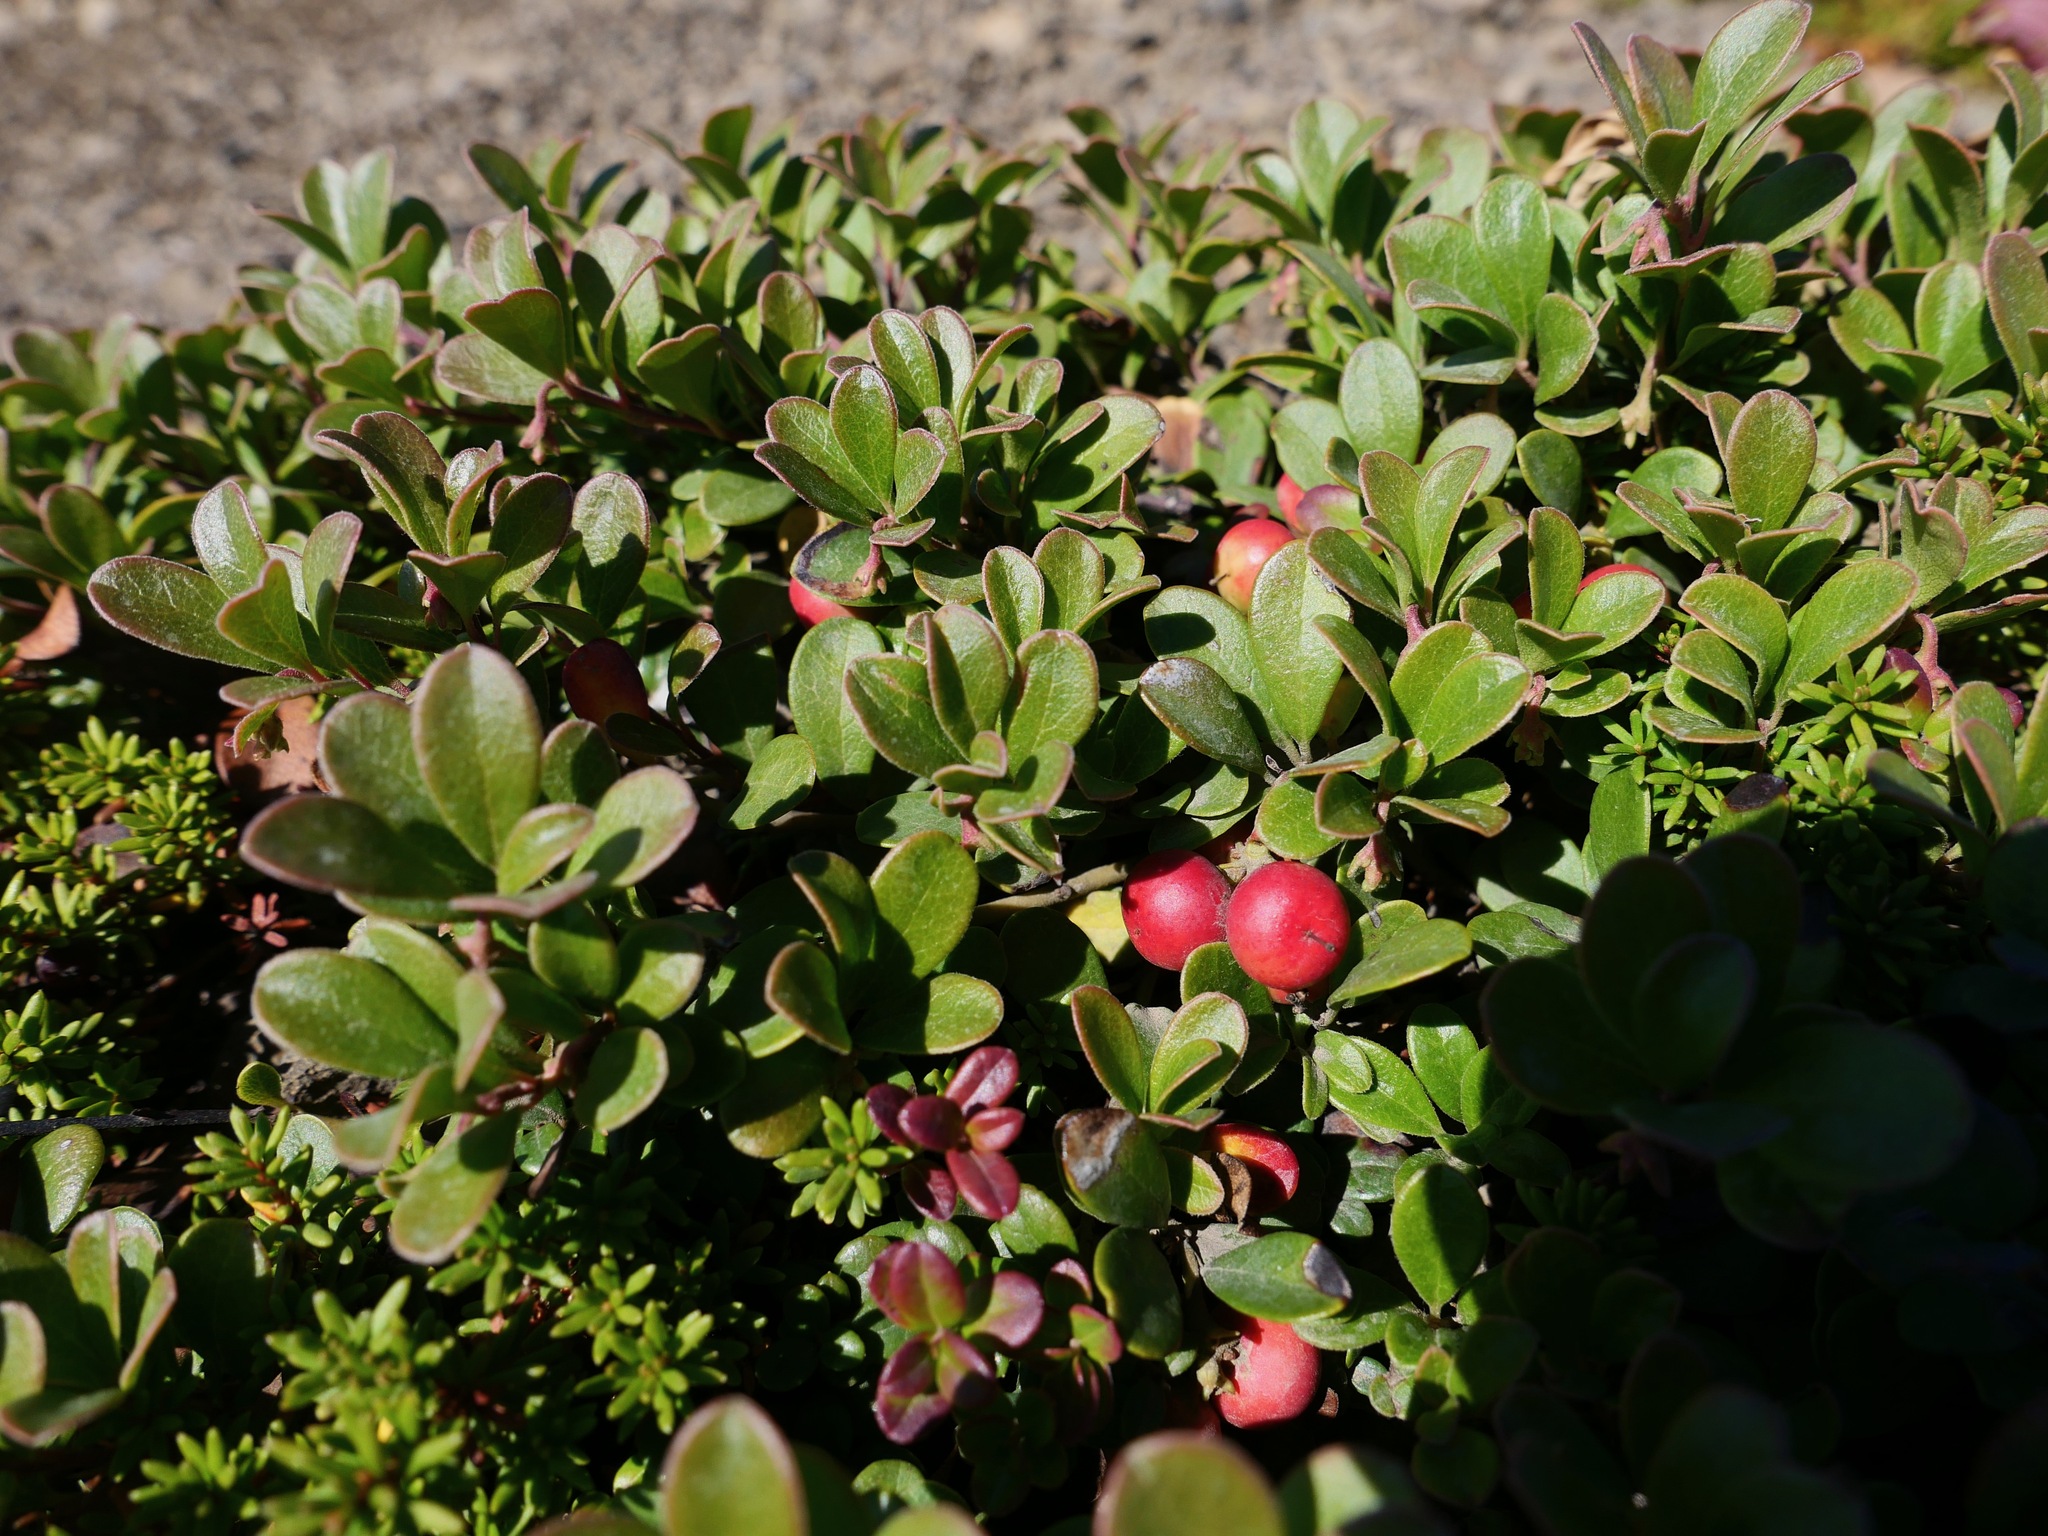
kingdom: Plantae
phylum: Tracheophyta
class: Magnoliopsida
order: Ericales
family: Ericaceae
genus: Arctostaphylos
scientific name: Arctostaphylos uva-ursi
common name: Bearberry
